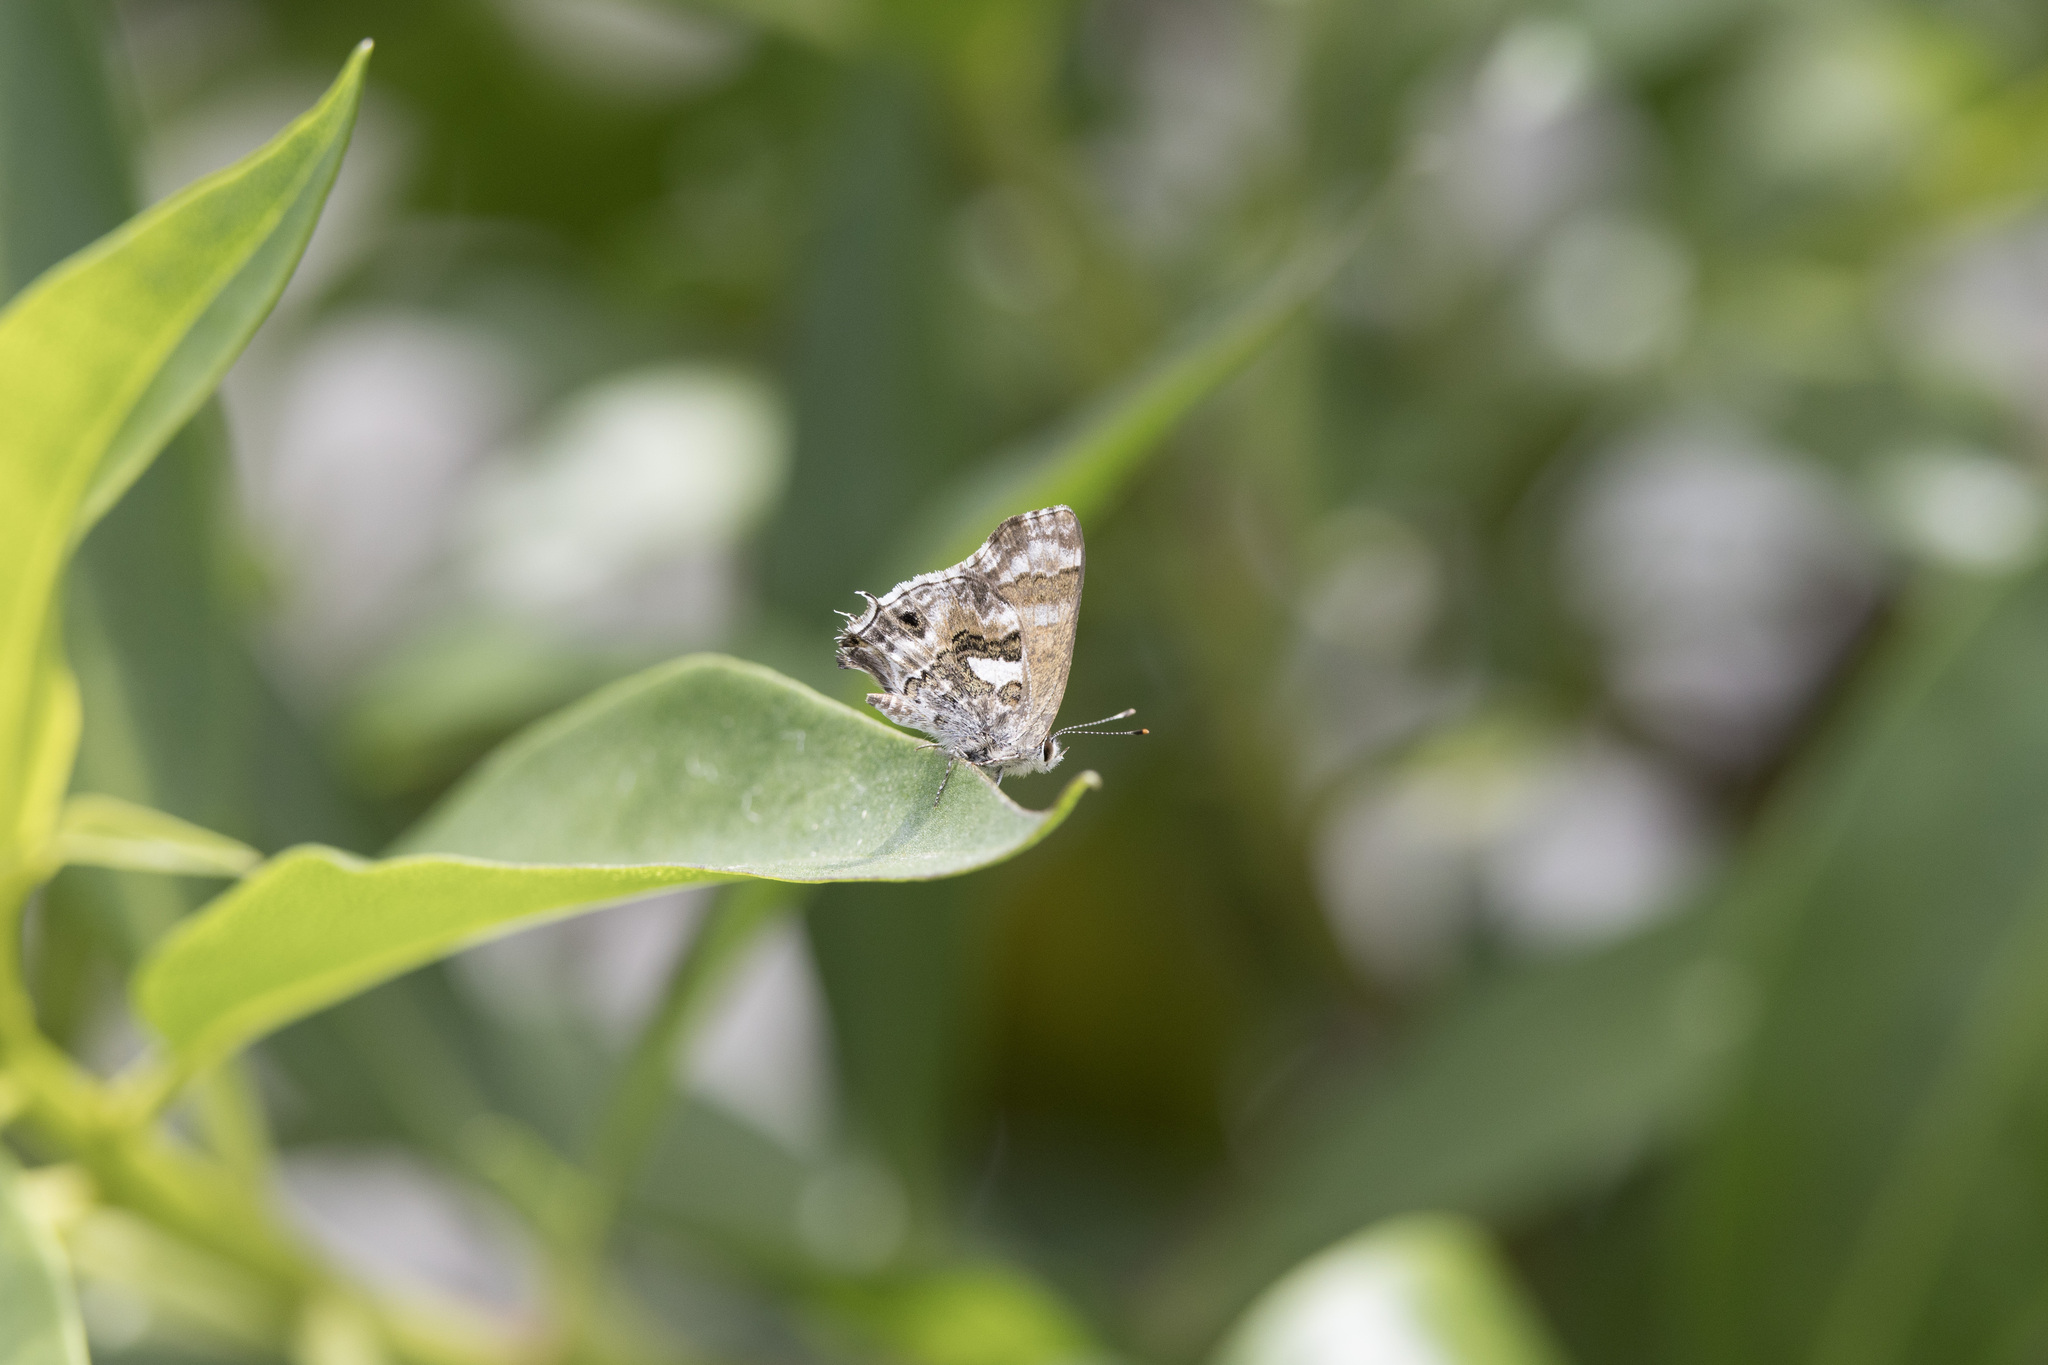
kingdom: Animalia
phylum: Arthropoda
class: Insecta
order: Lepidoptera
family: Lycaenidae
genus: Strymon
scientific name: Strymon
